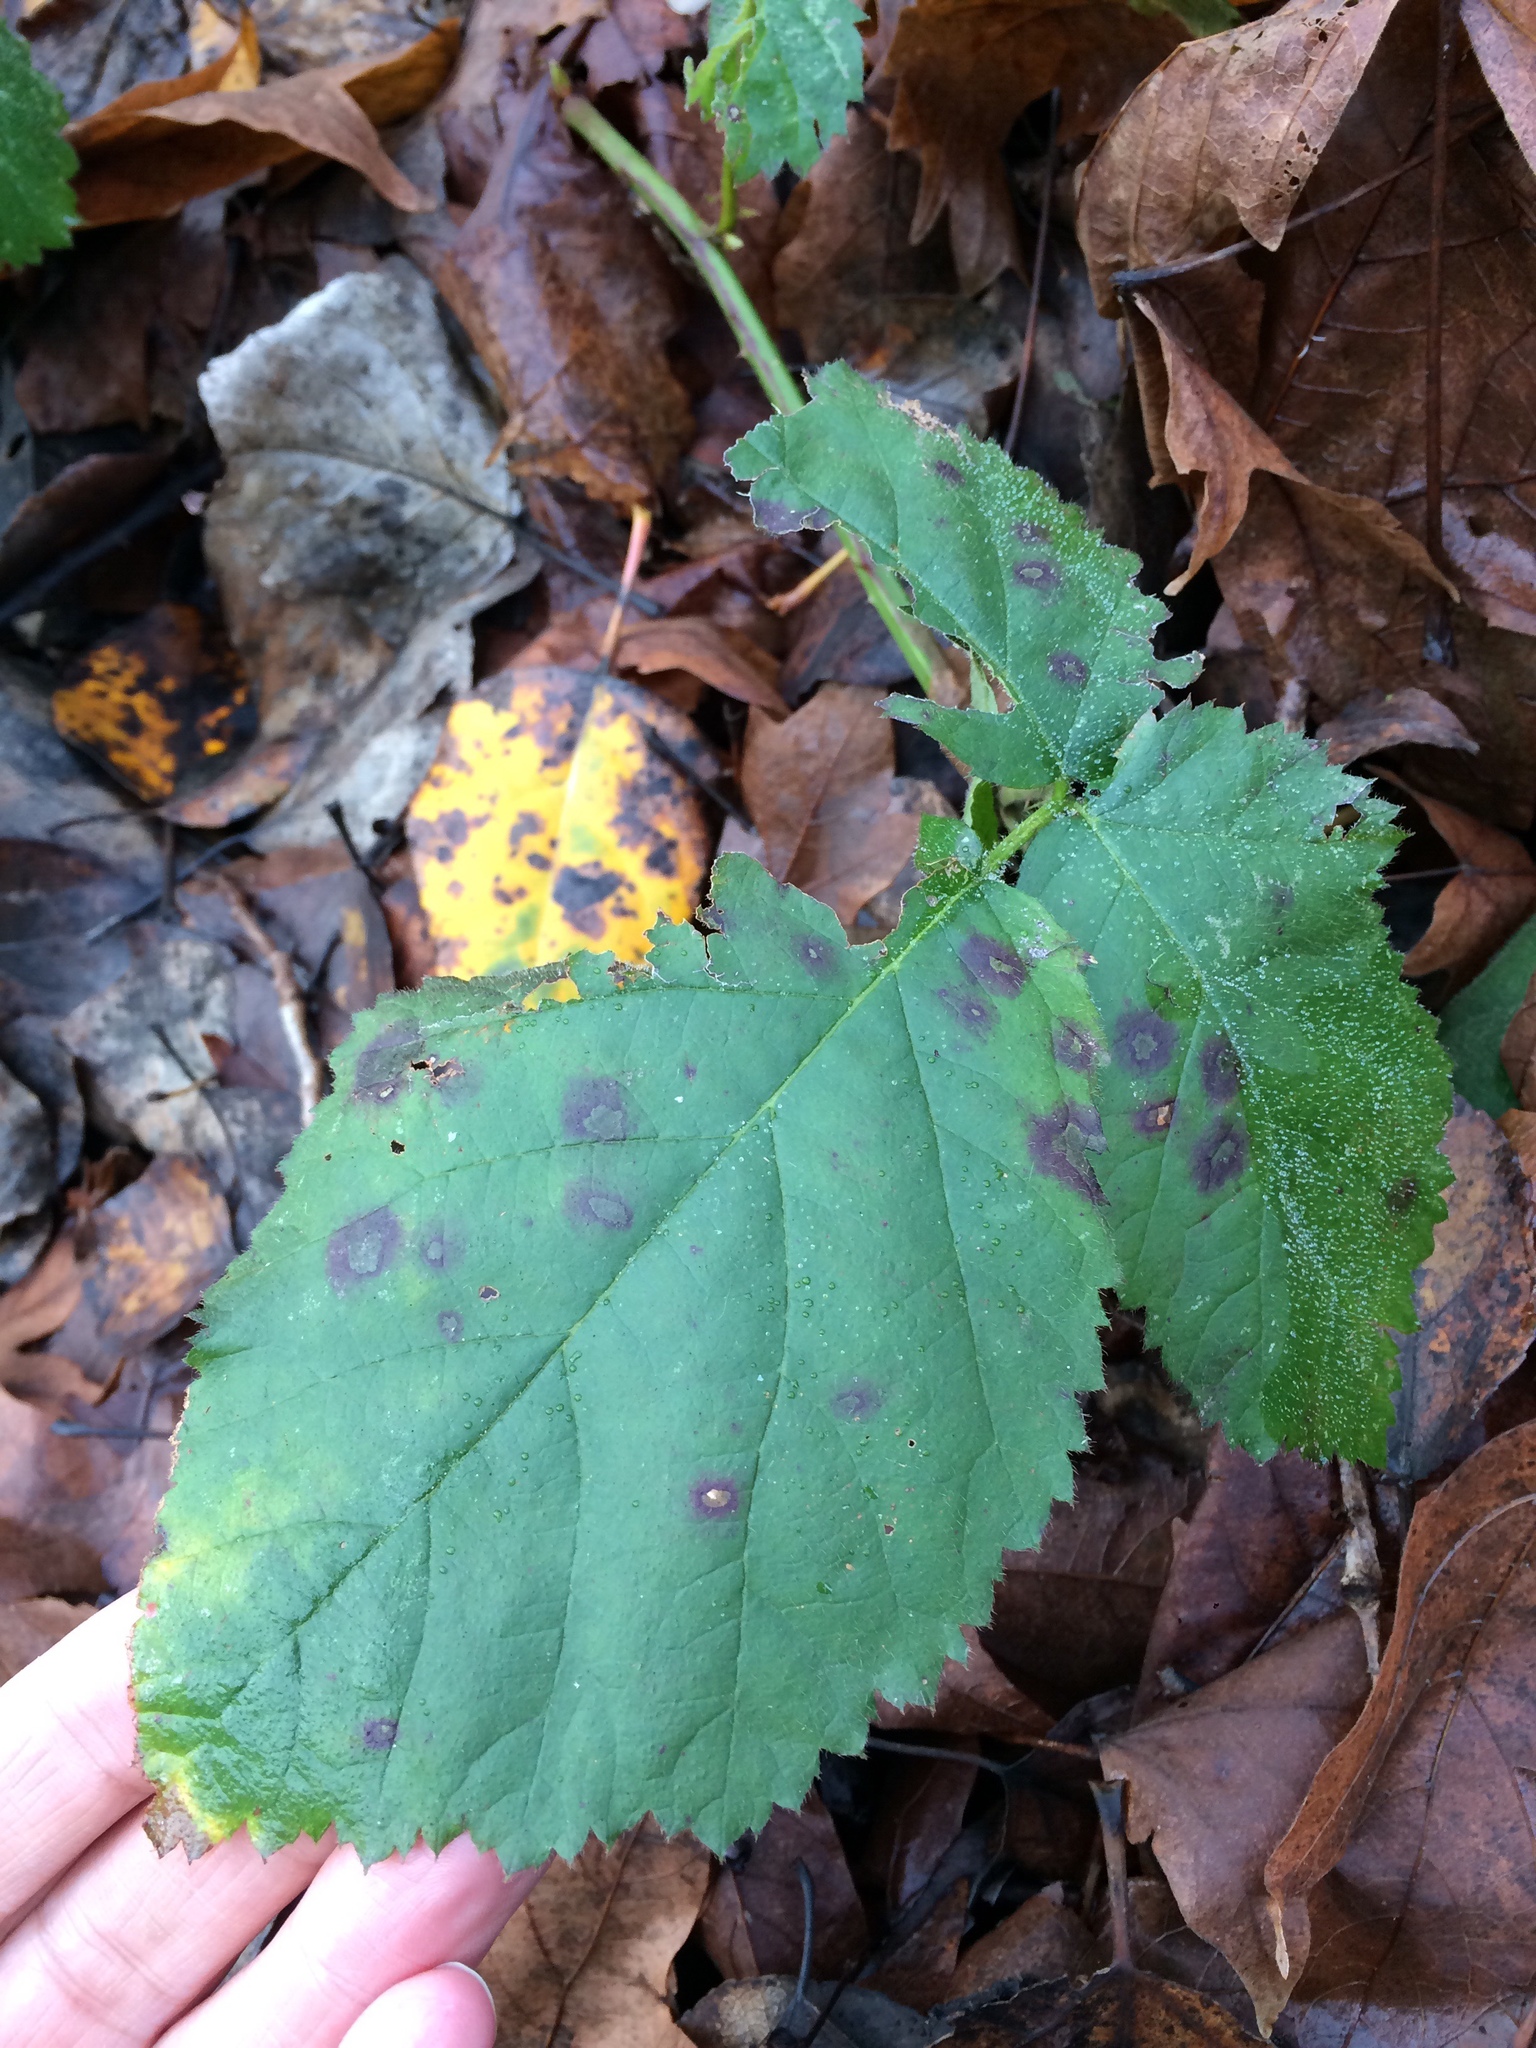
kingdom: Fungi
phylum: Basidiomycota
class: Pucciniomycetes
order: Pucciniales
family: Phragmidiaceae
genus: Phragmidium
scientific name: Phragmidium violaceum
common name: Violet bramble rust
